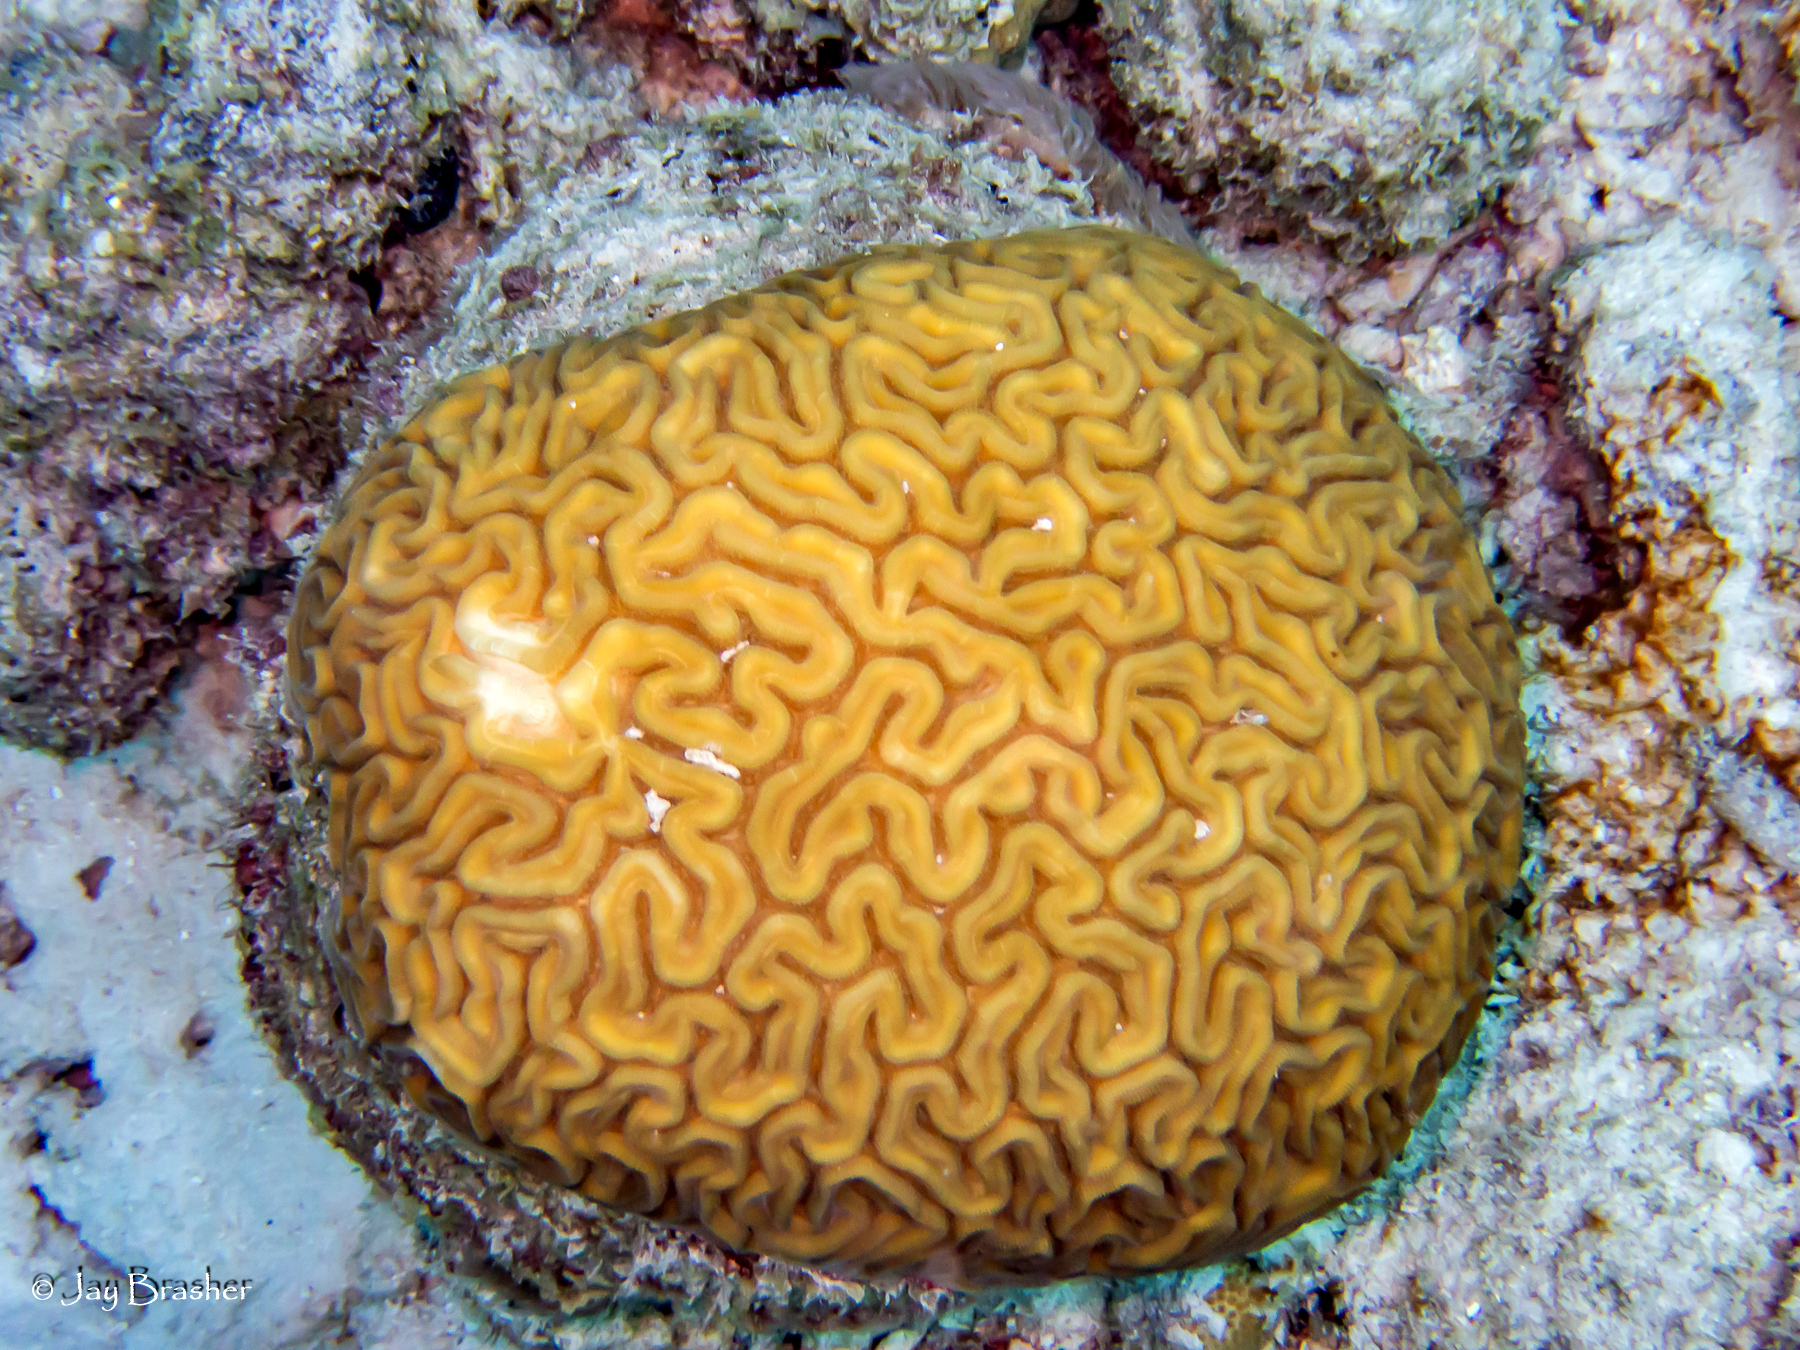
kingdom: Animalia
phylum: Cnidaria
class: Anthozoa
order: Scleractinia
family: Faviidae
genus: Diploria
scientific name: Diploria labyrinthiformis
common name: Grooved brain coral
